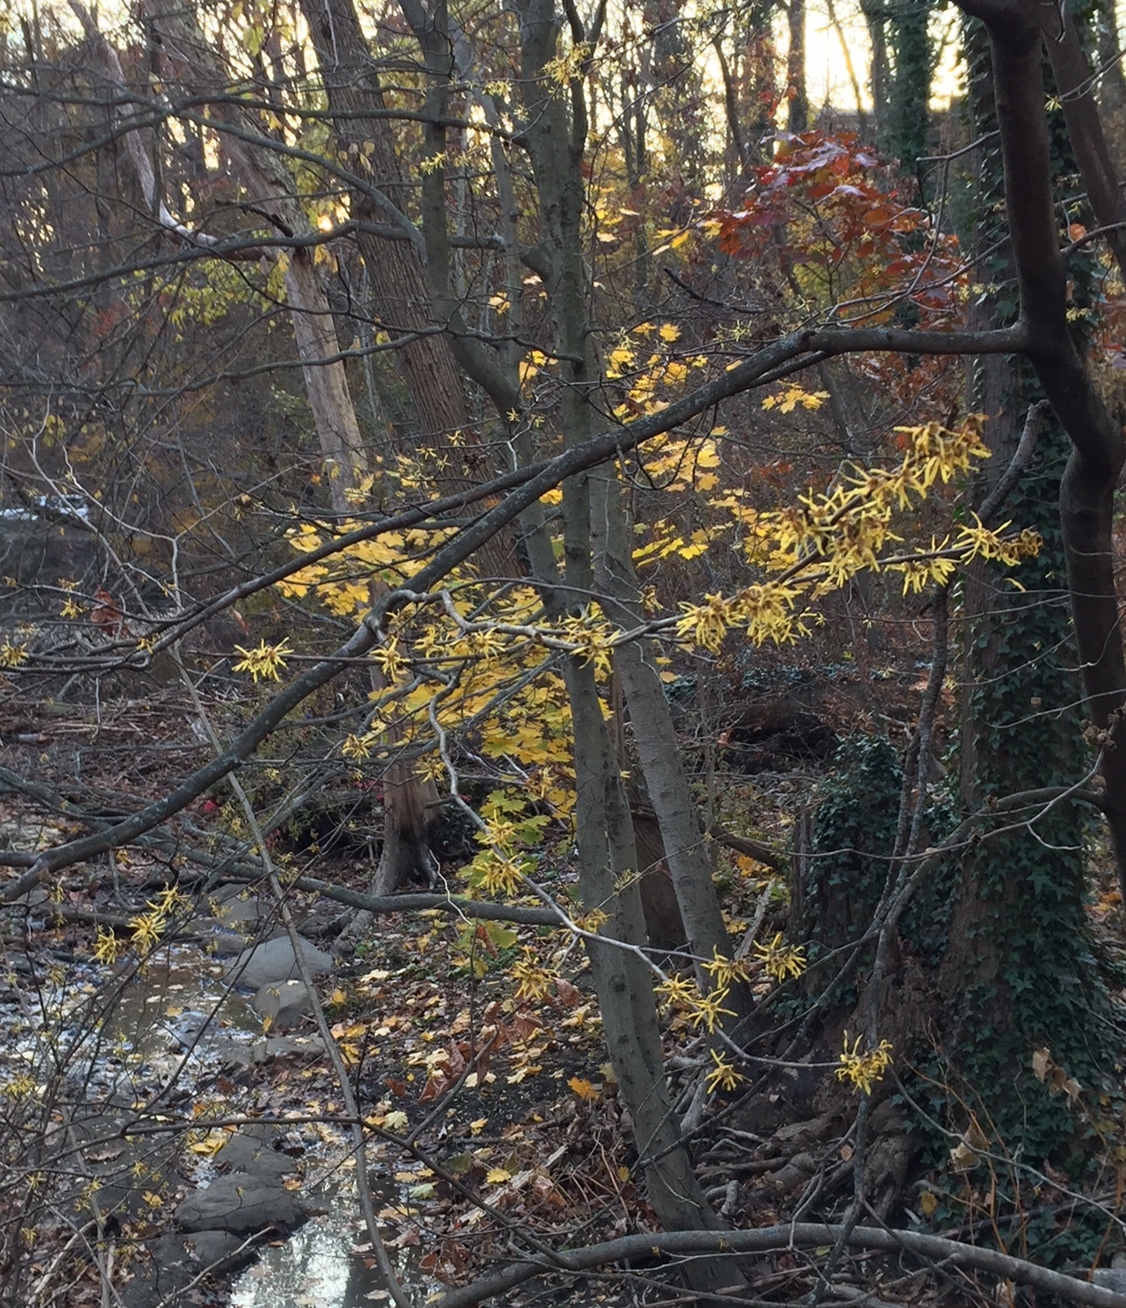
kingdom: Plantae
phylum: Tracheophyta
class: Magnoliopsida
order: Saxifragales
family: Hamamelidaceae
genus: Hamamelis
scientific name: Hamamelis virginiana
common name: Witch-hazel
